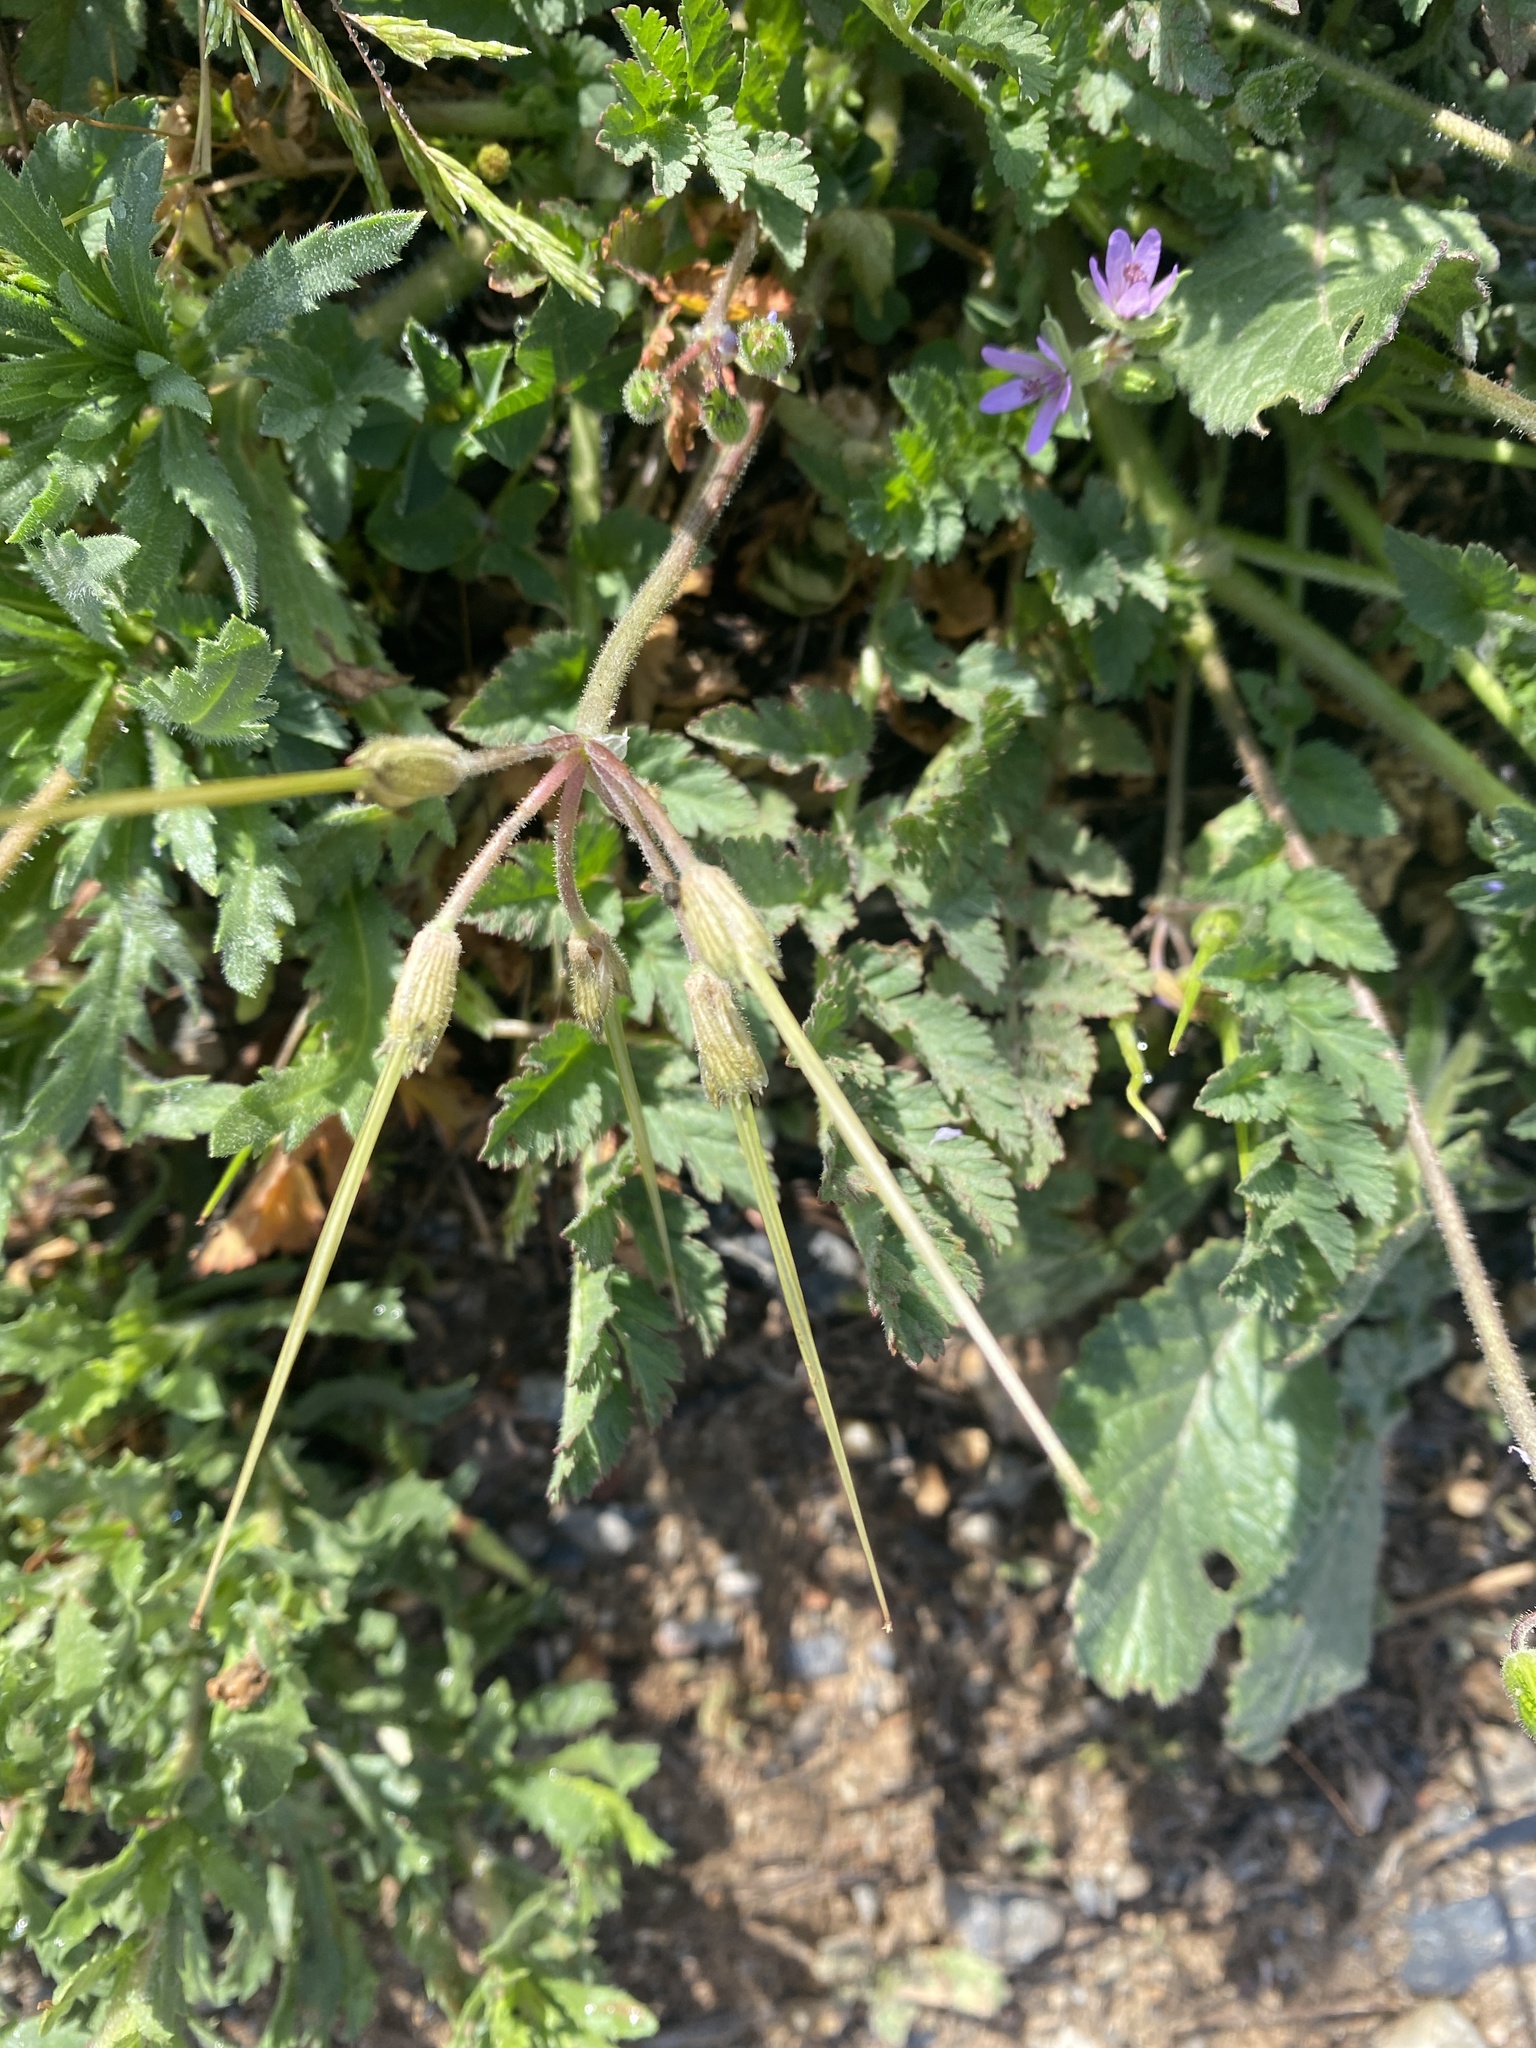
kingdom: Plantae
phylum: Tracheophyta
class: Magnoliopsida
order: Geraniales
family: Geraniaceae
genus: Erodium
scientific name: Erodium moschatum
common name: Musk stork's-bill
